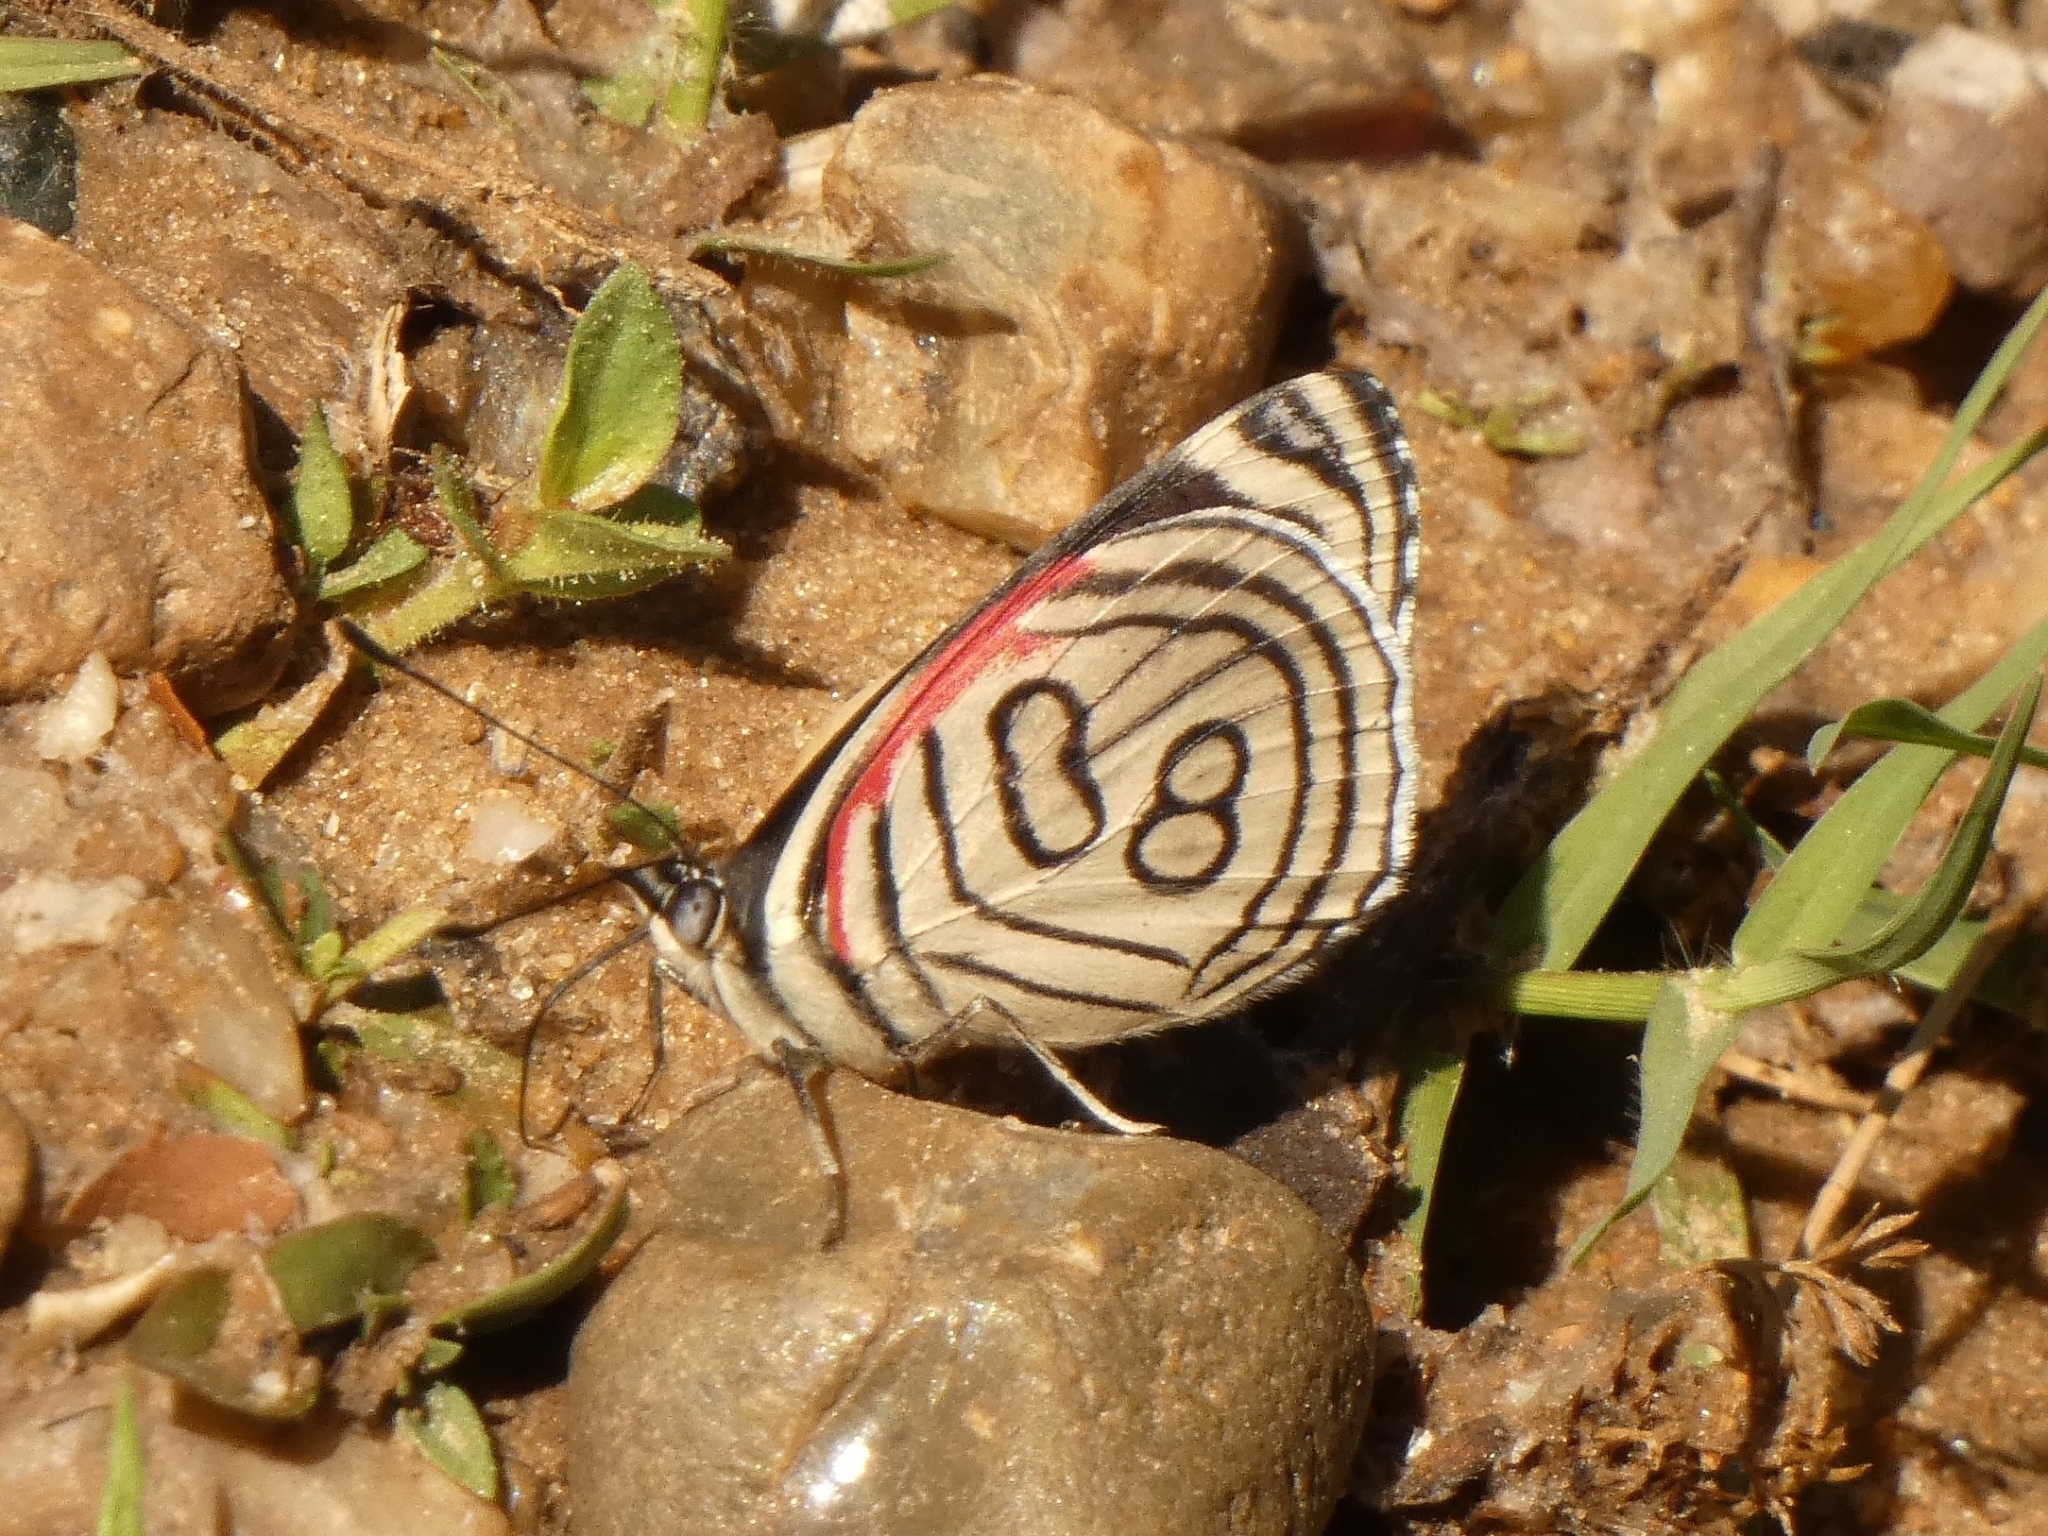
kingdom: Animalia
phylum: Arthropoda
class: Insecta
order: Lepidoptera
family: Nymphalidae
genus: Diaethria
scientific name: Diaethria candrena
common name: Number eighty
